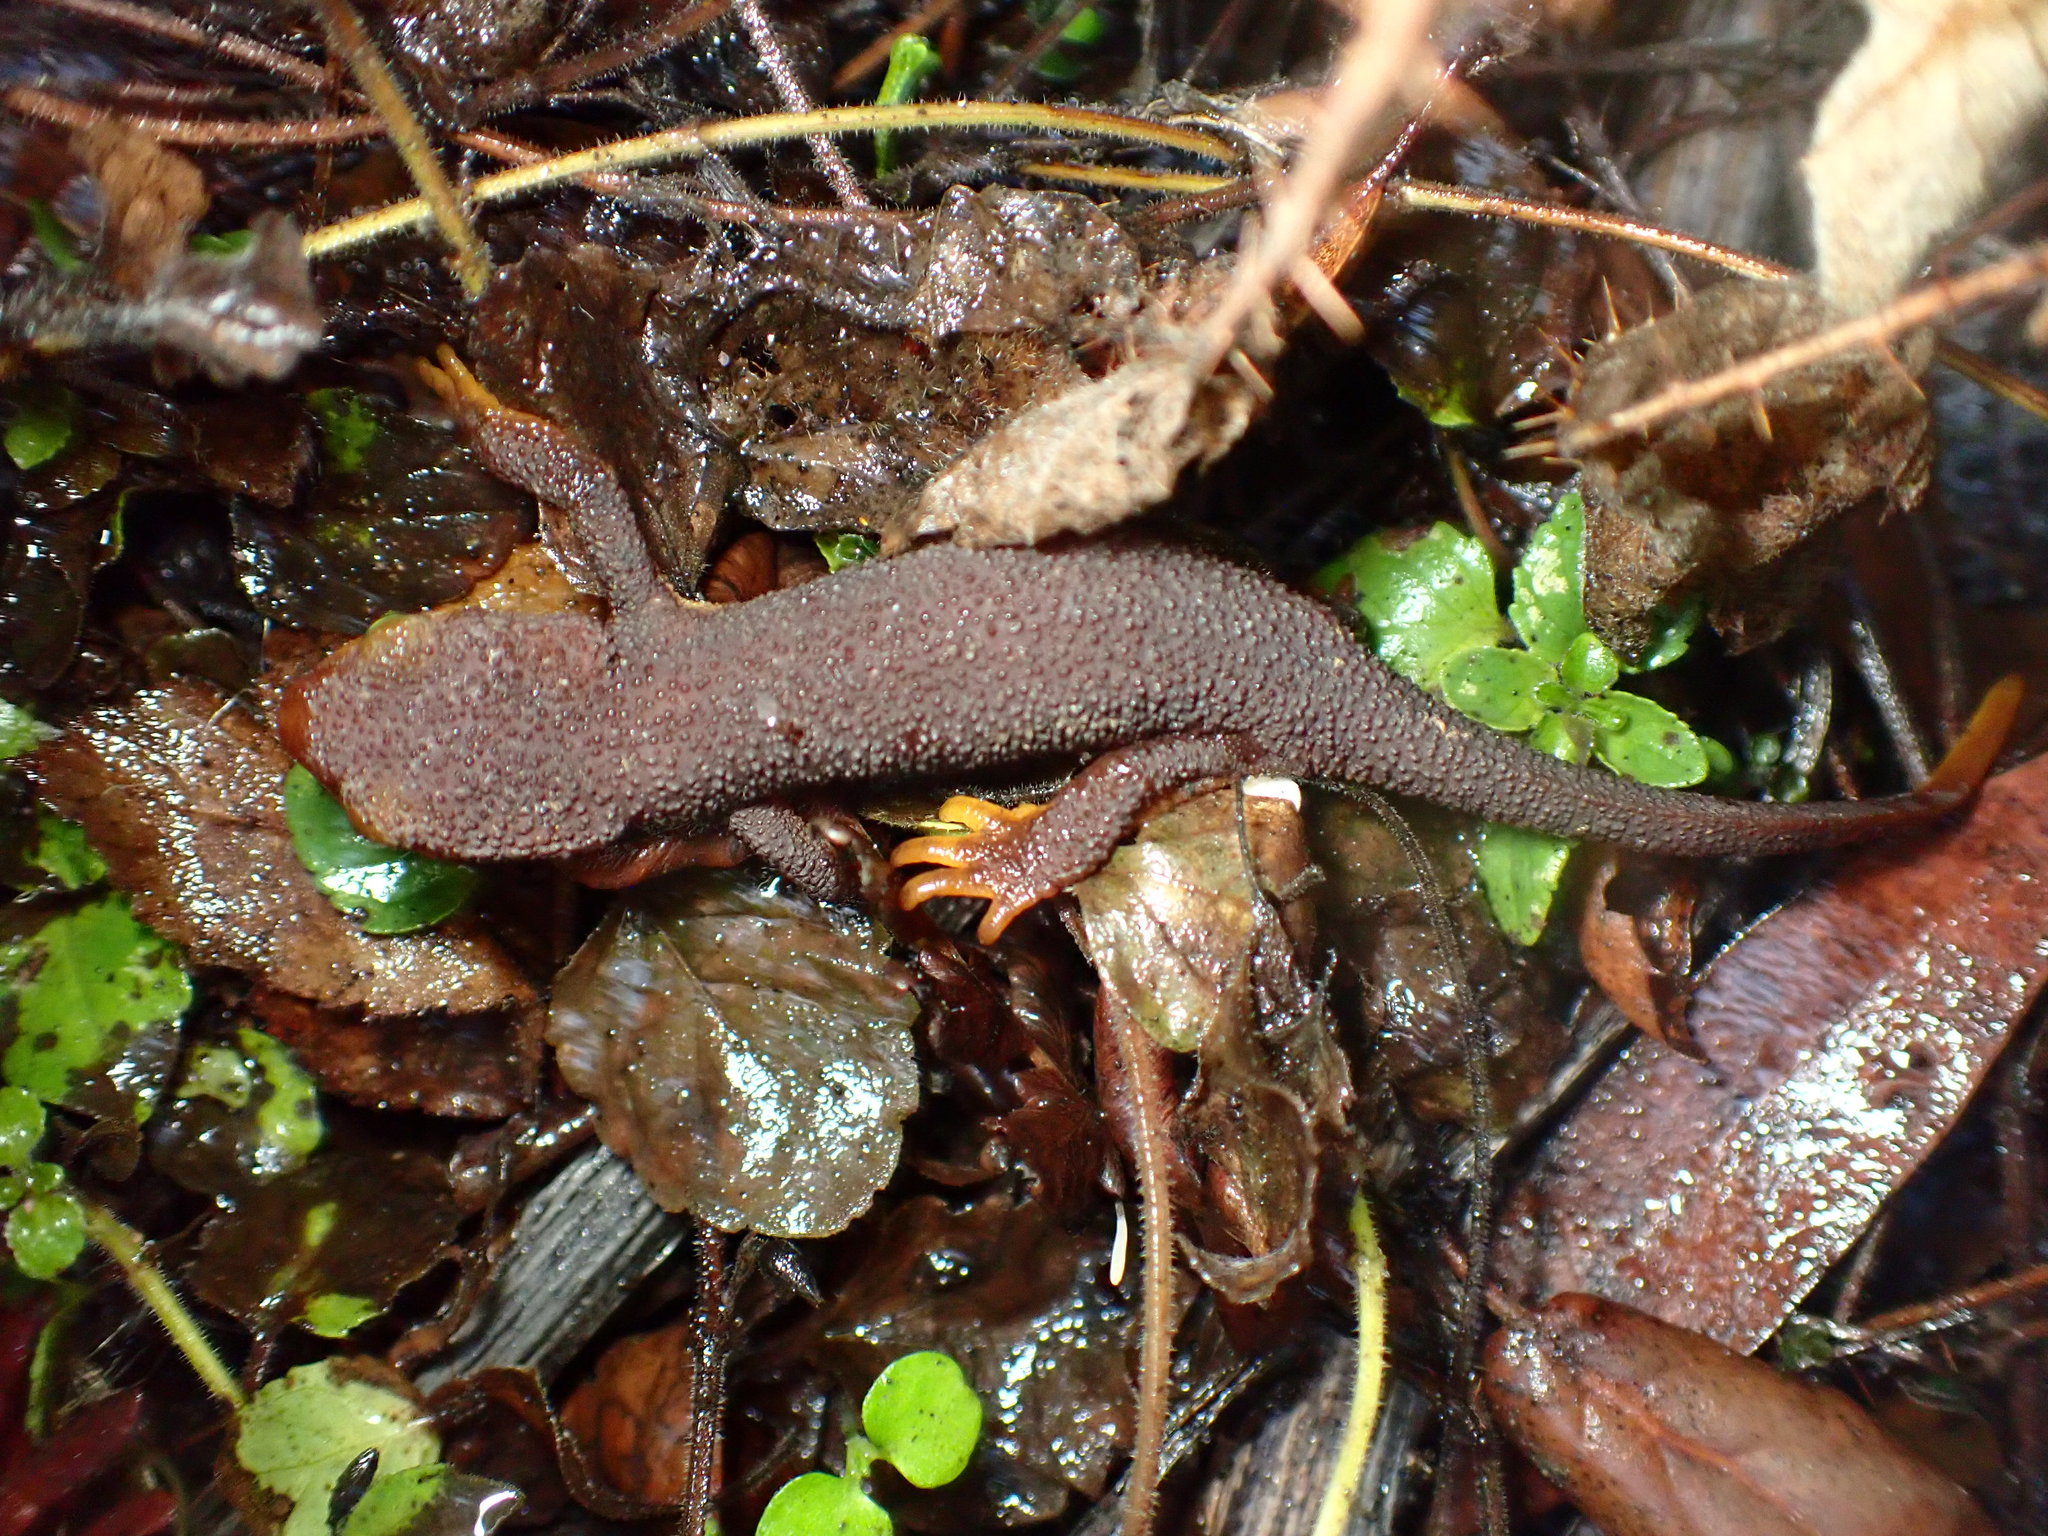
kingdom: Animalia
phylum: Chordata
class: Amphibia
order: Caudata
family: Salamandridae
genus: Taricha
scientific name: Taricha torosa
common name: California newt
